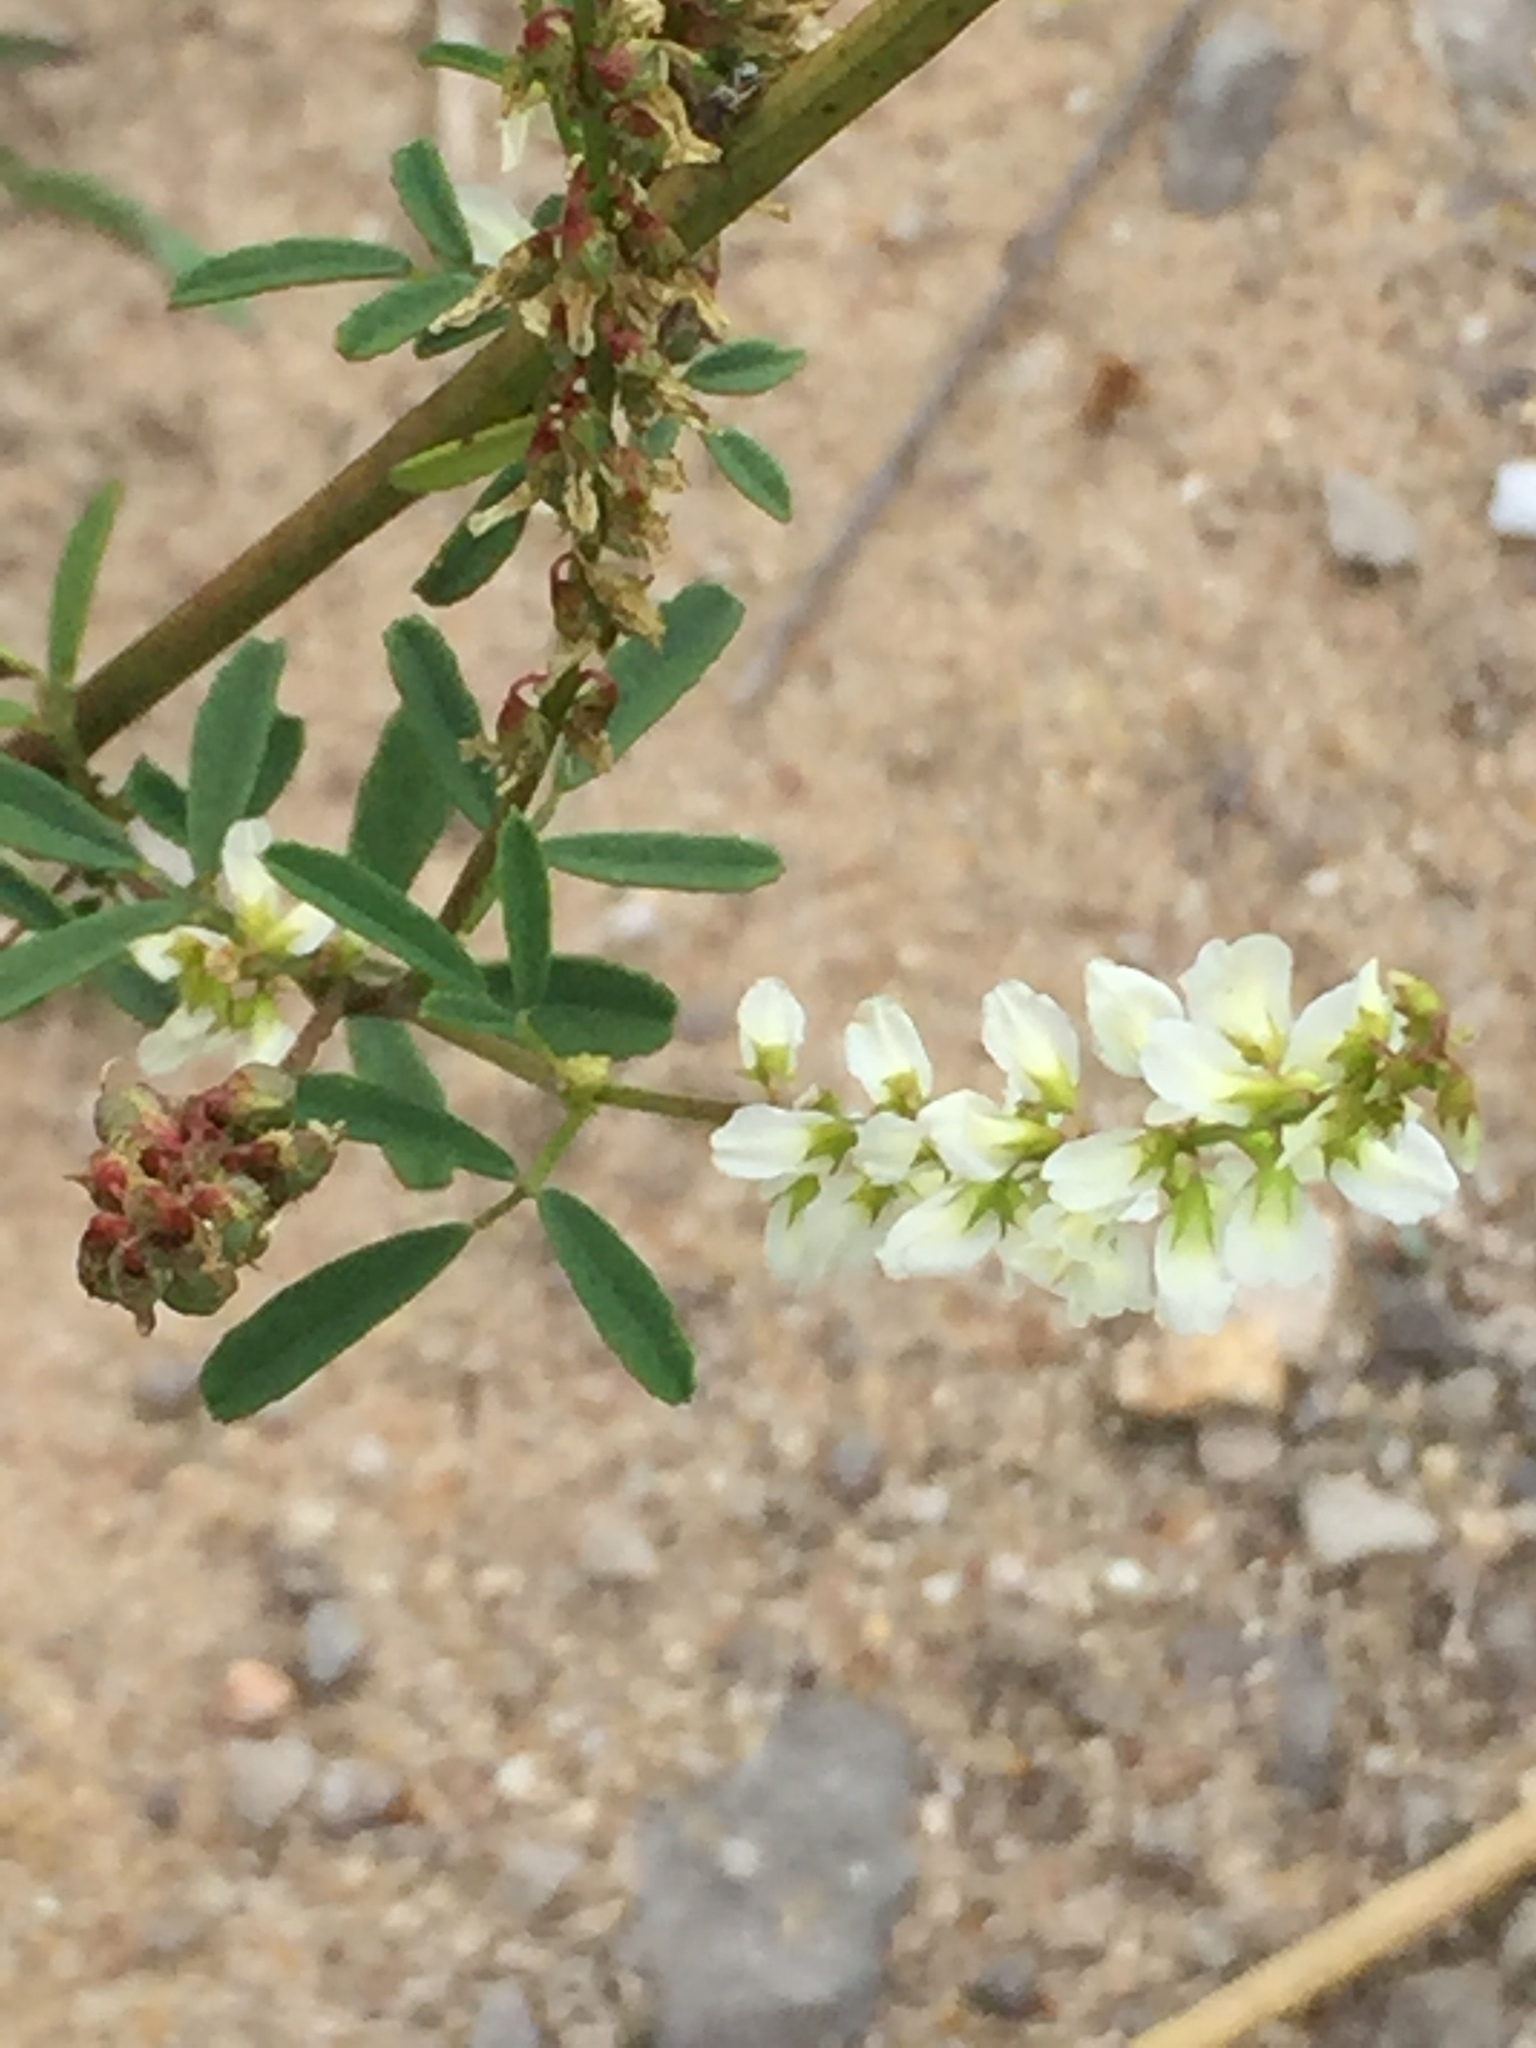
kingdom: Plantae
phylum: Tracheophyta
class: Magnoliopsida
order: Fabales
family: Fabaceae
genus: Melilotus
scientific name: Melilotus albus
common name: White melilot
